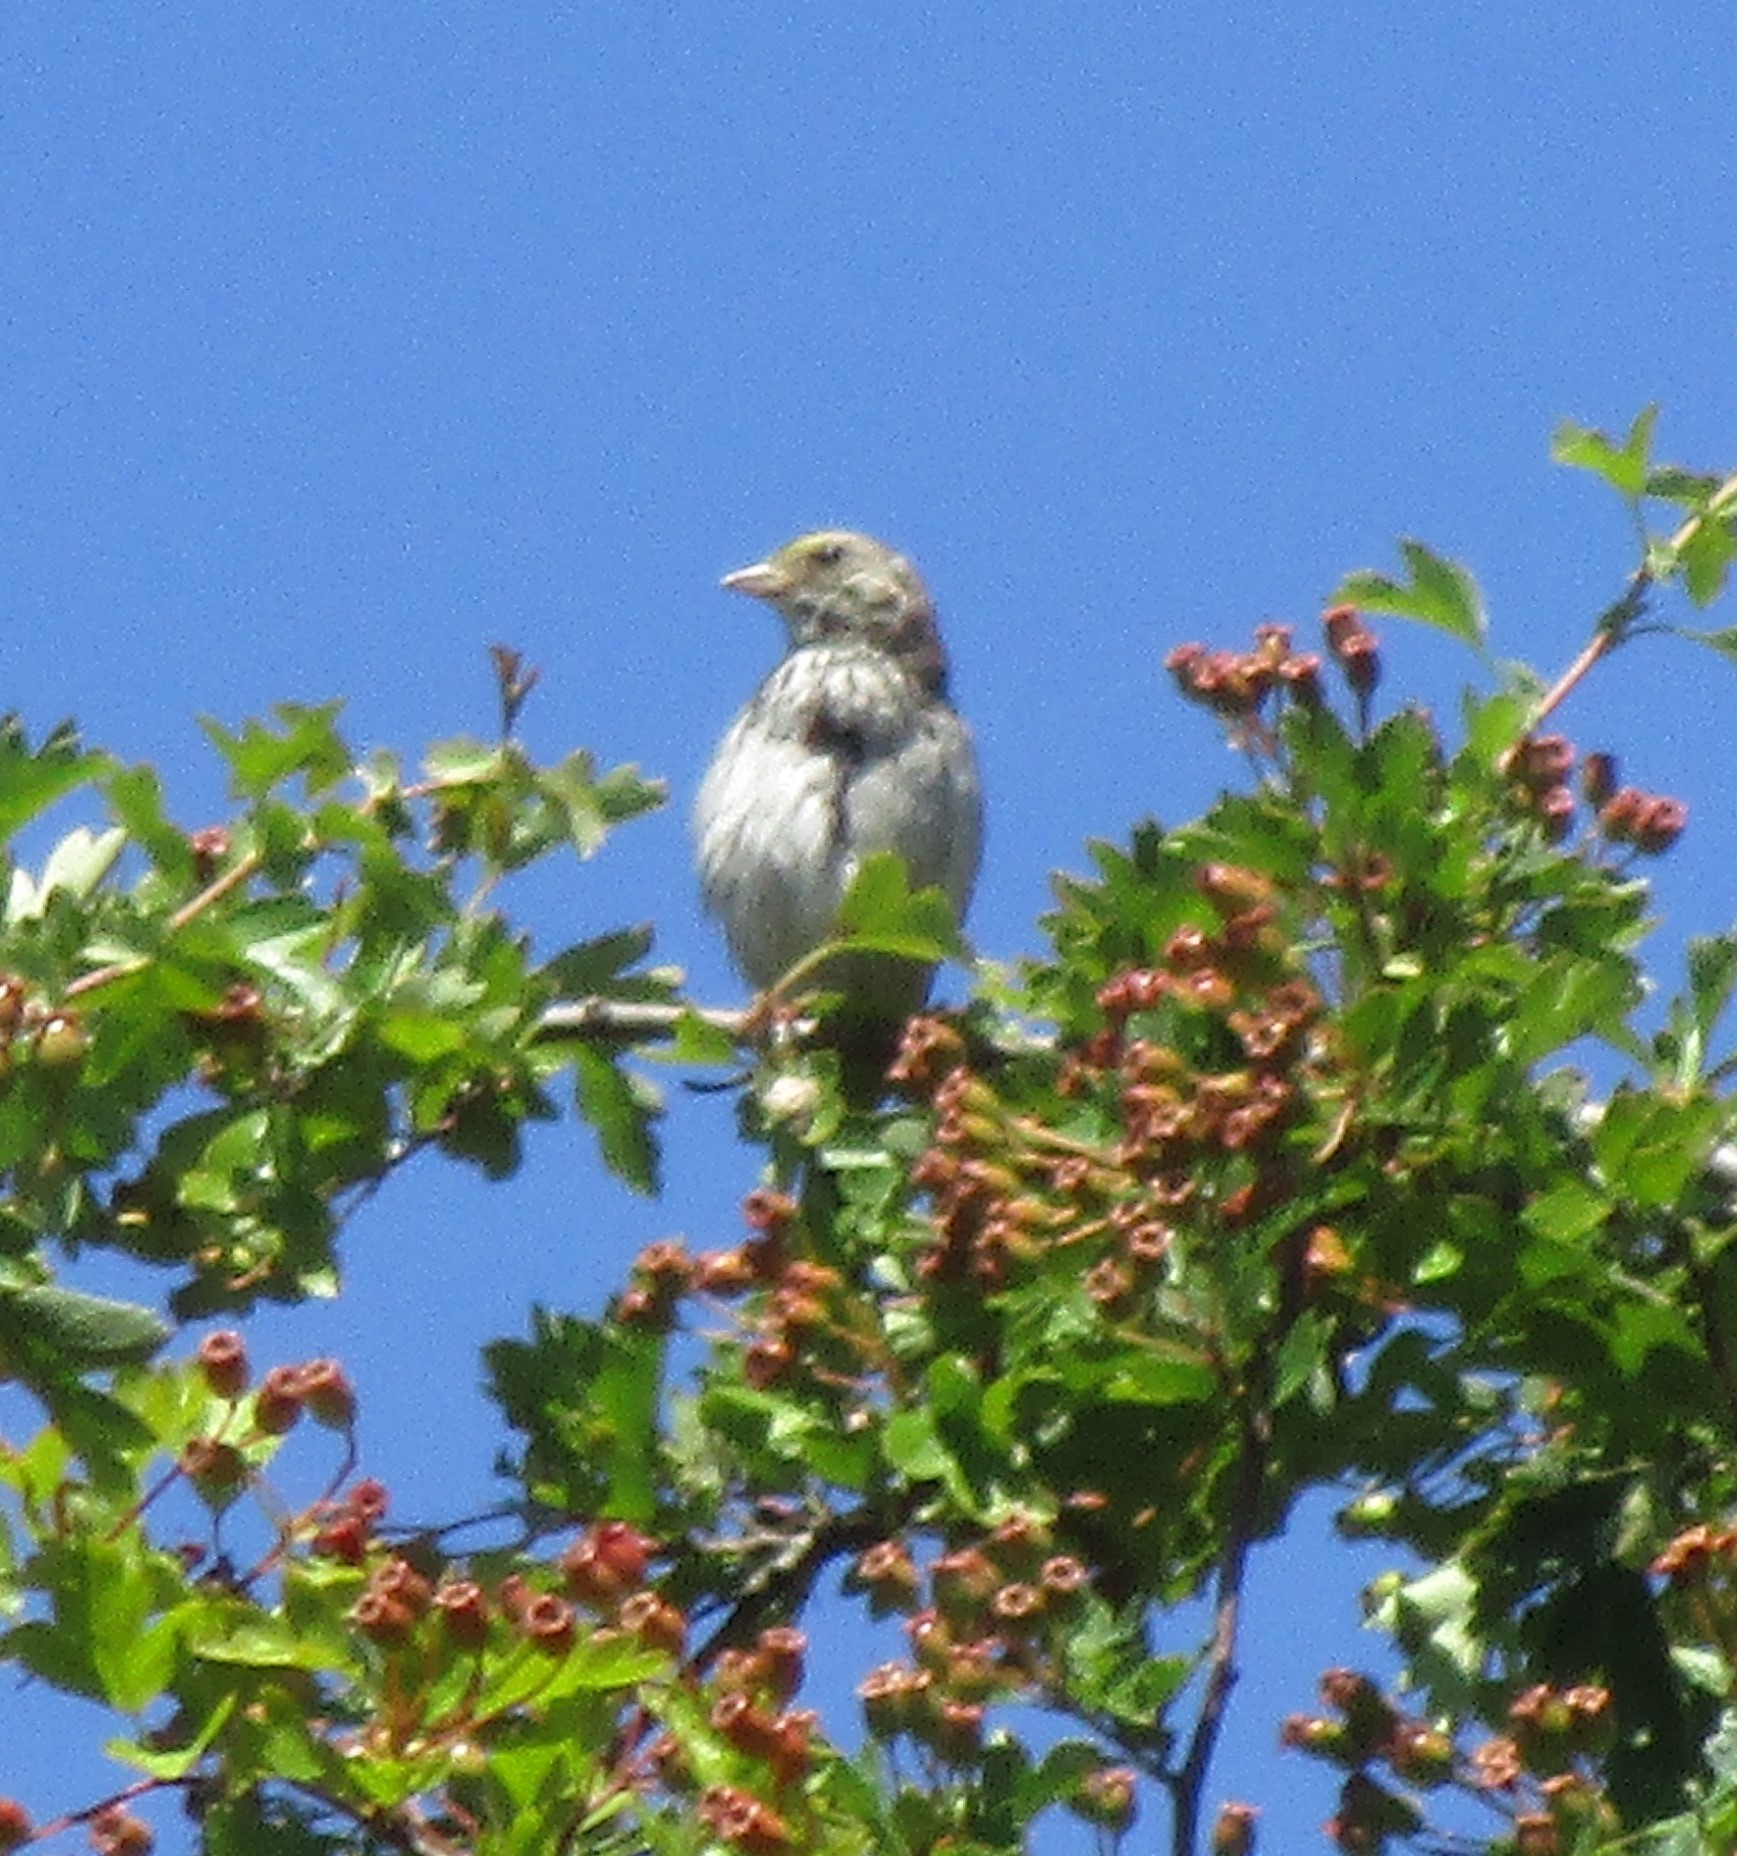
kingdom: Animalia
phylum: Chordata
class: Aves
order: Passeriformes
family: Passerellidae
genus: Passerculus
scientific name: Passerculus sandwichensis
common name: Savannah sparrow
